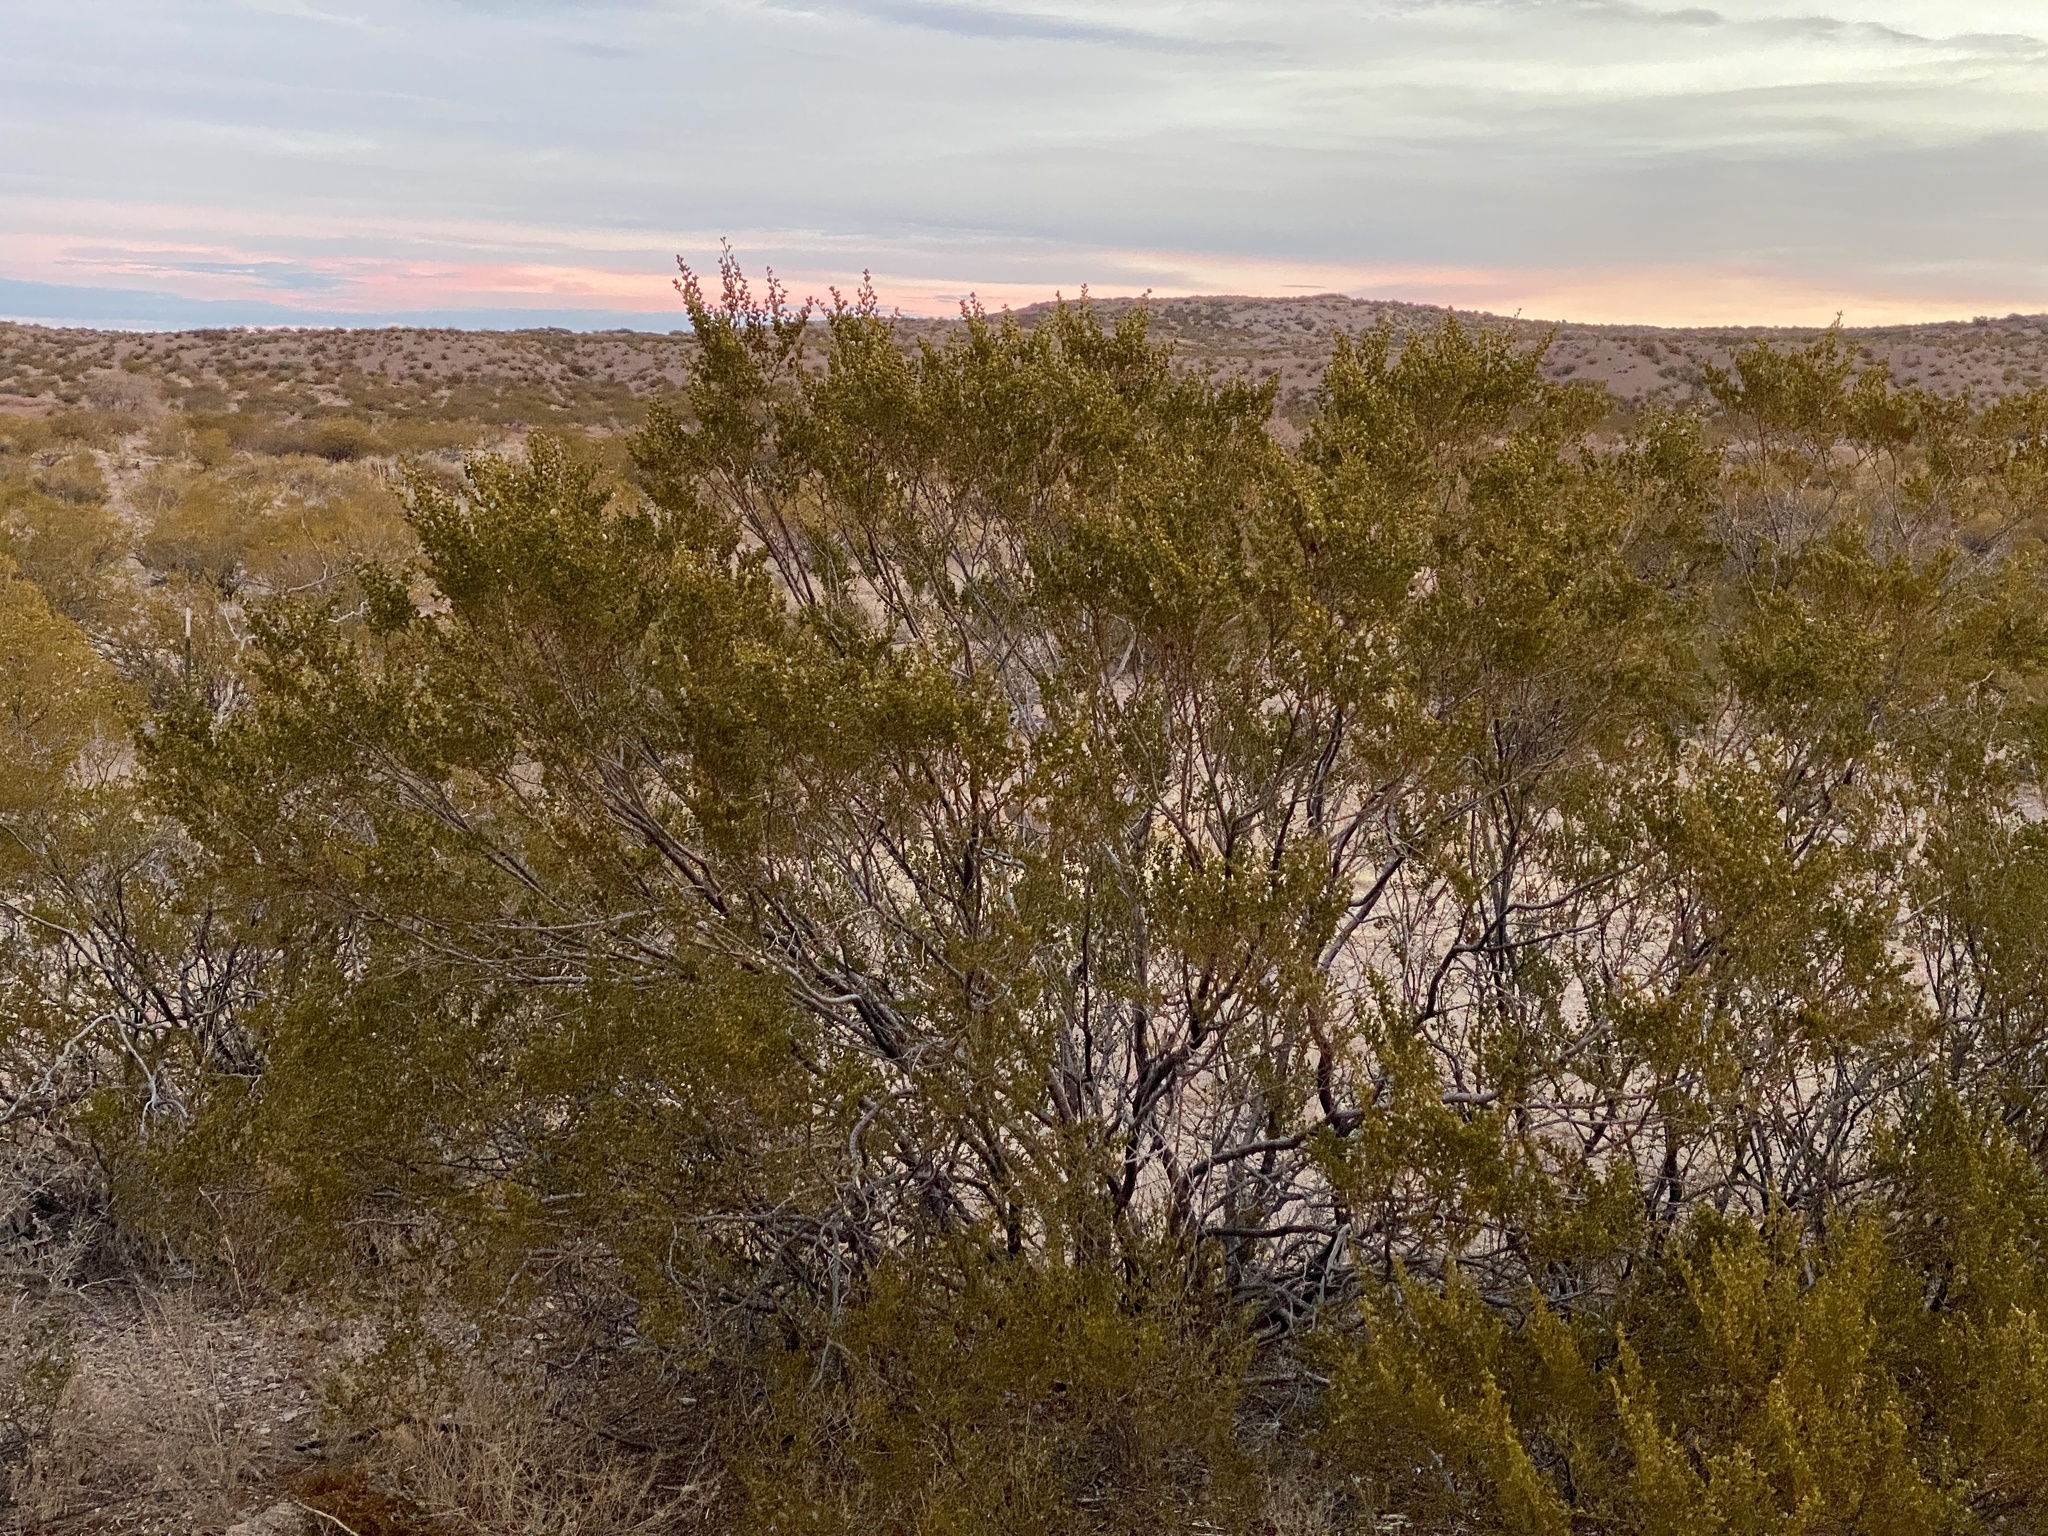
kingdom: Plantae
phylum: Tracheophyta
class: Magnoliopsida
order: Zygophyllales
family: Zygophyllaceae
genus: Larrea
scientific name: Larrea tridentata
